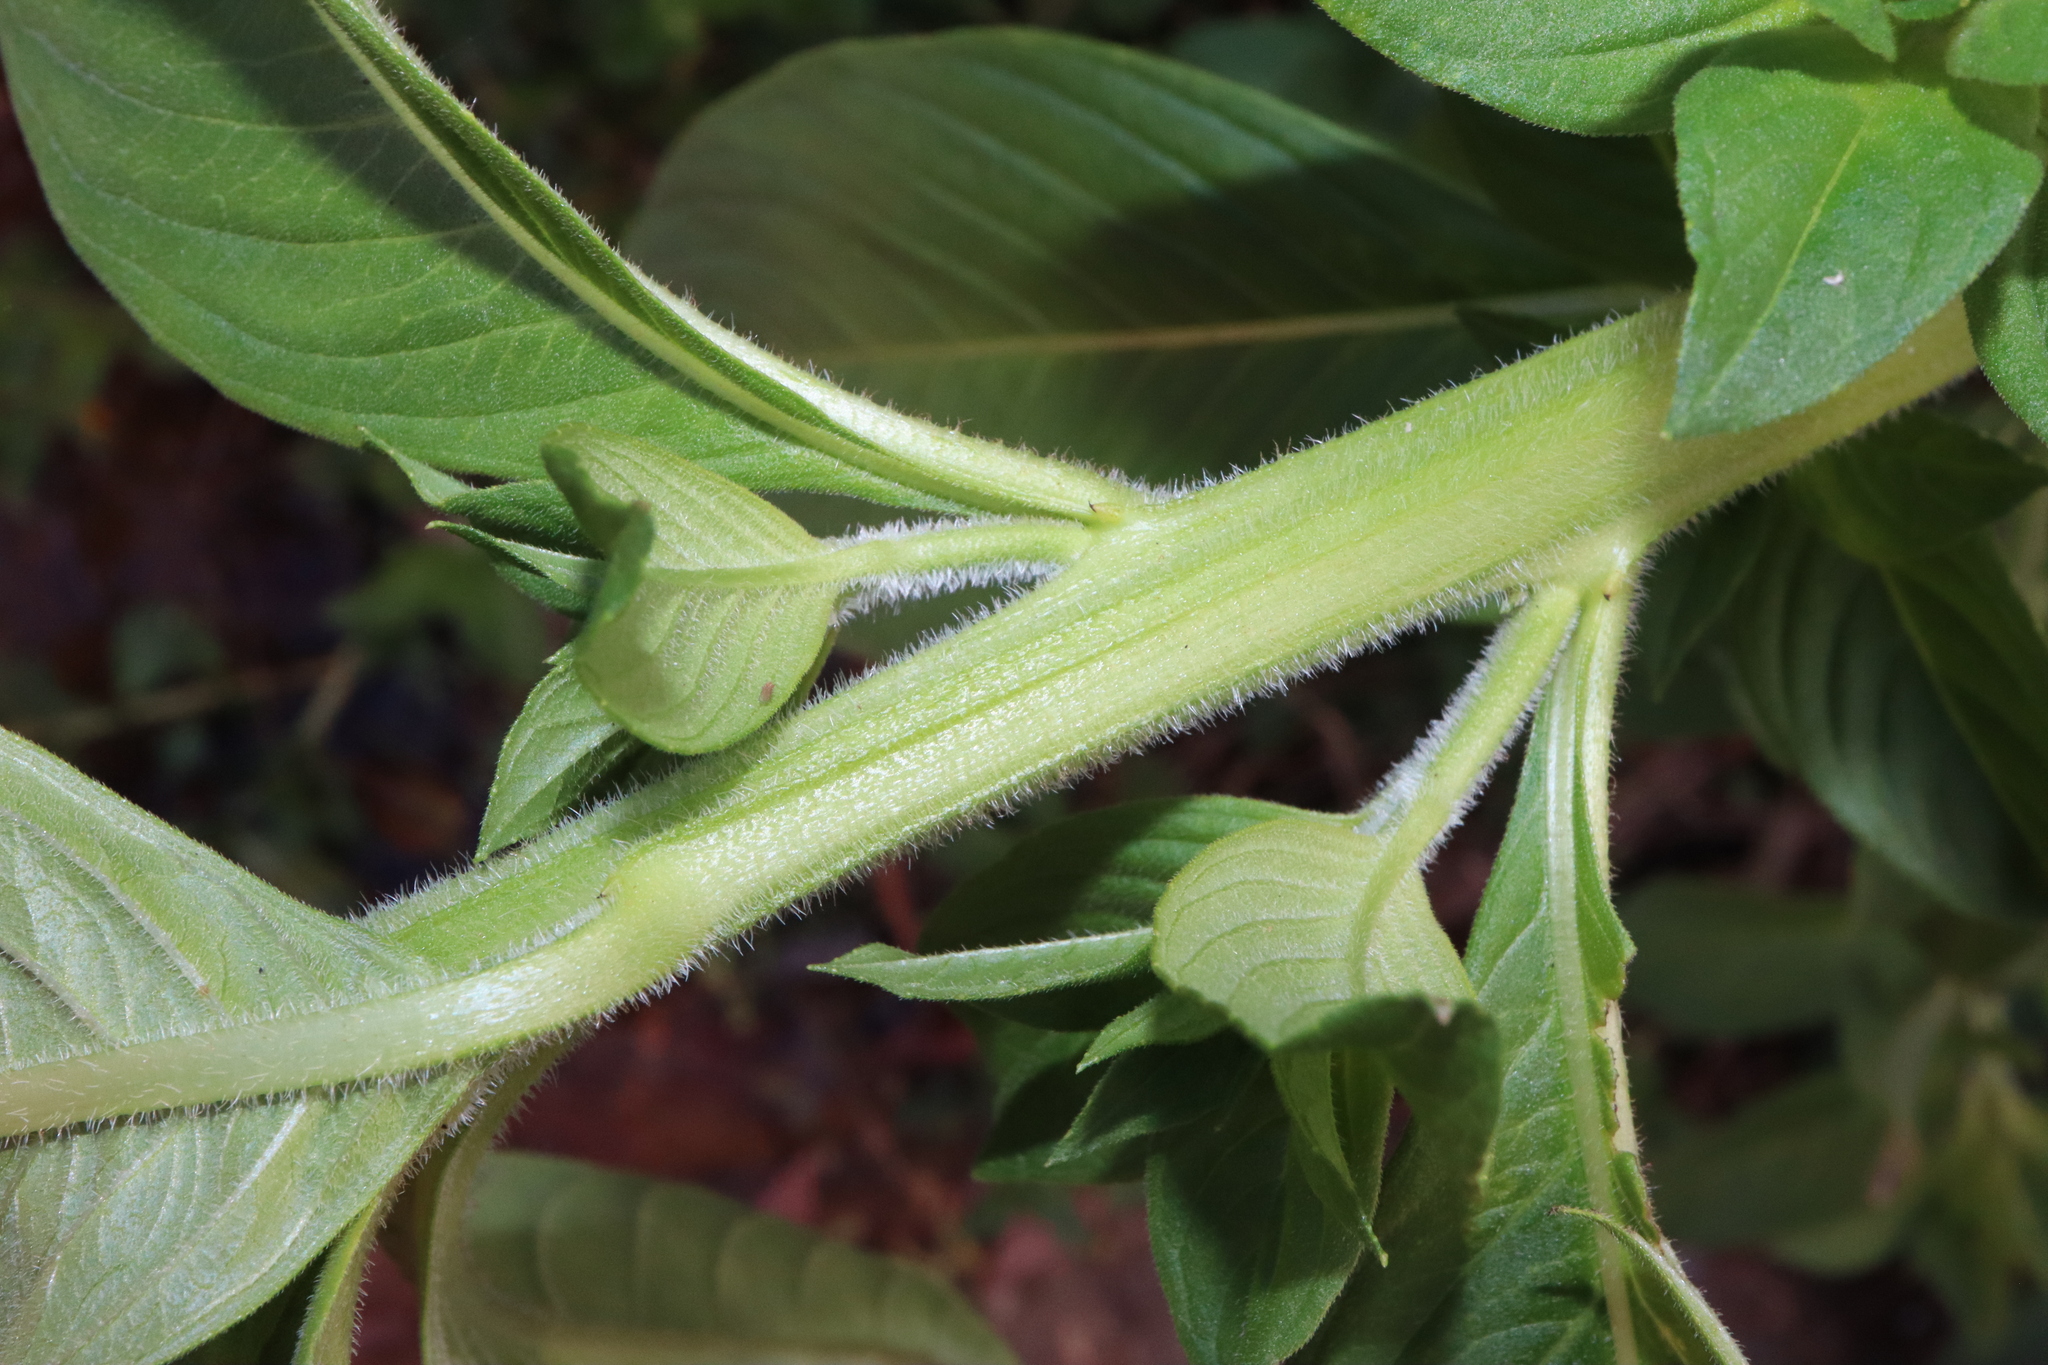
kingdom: Plantae
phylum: Tracheophyta
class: Magnoliopsida
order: Myrtales
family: Onagraceae
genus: Ludwigia
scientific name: Ludwigia peruviana
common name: Peruvian primrose-willow
